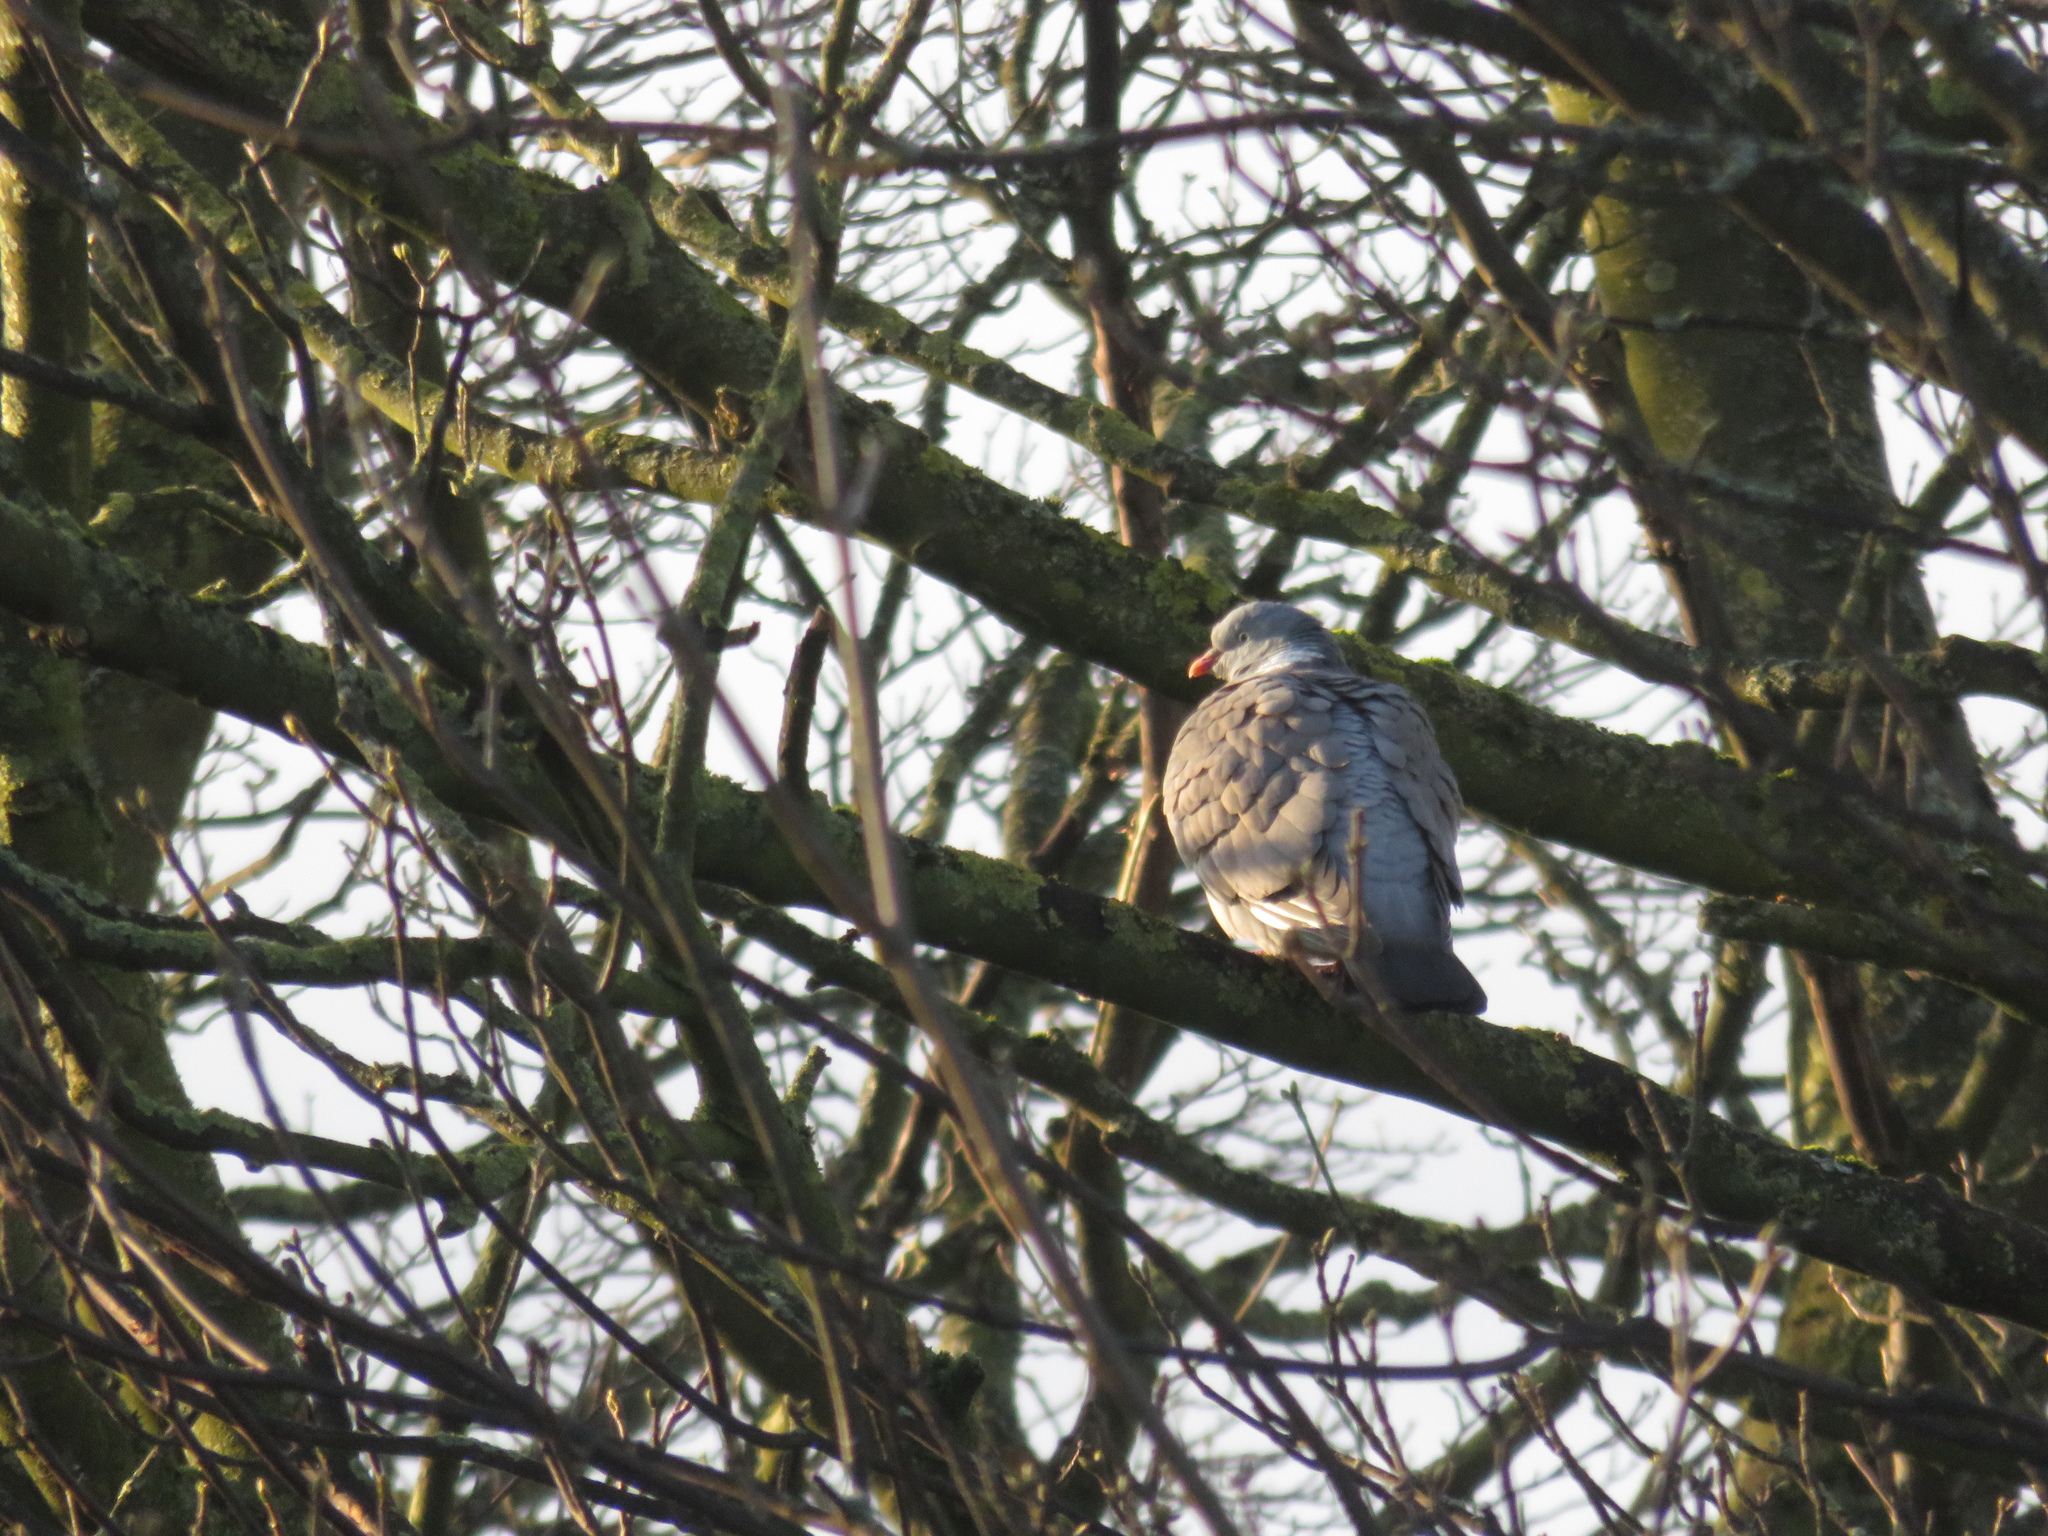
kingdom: Animalia
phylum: Chordata
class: Aves
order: Columbiformes
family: Columbidae
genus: Columba
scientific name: Columba palumbus
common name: Common wood pigeon
